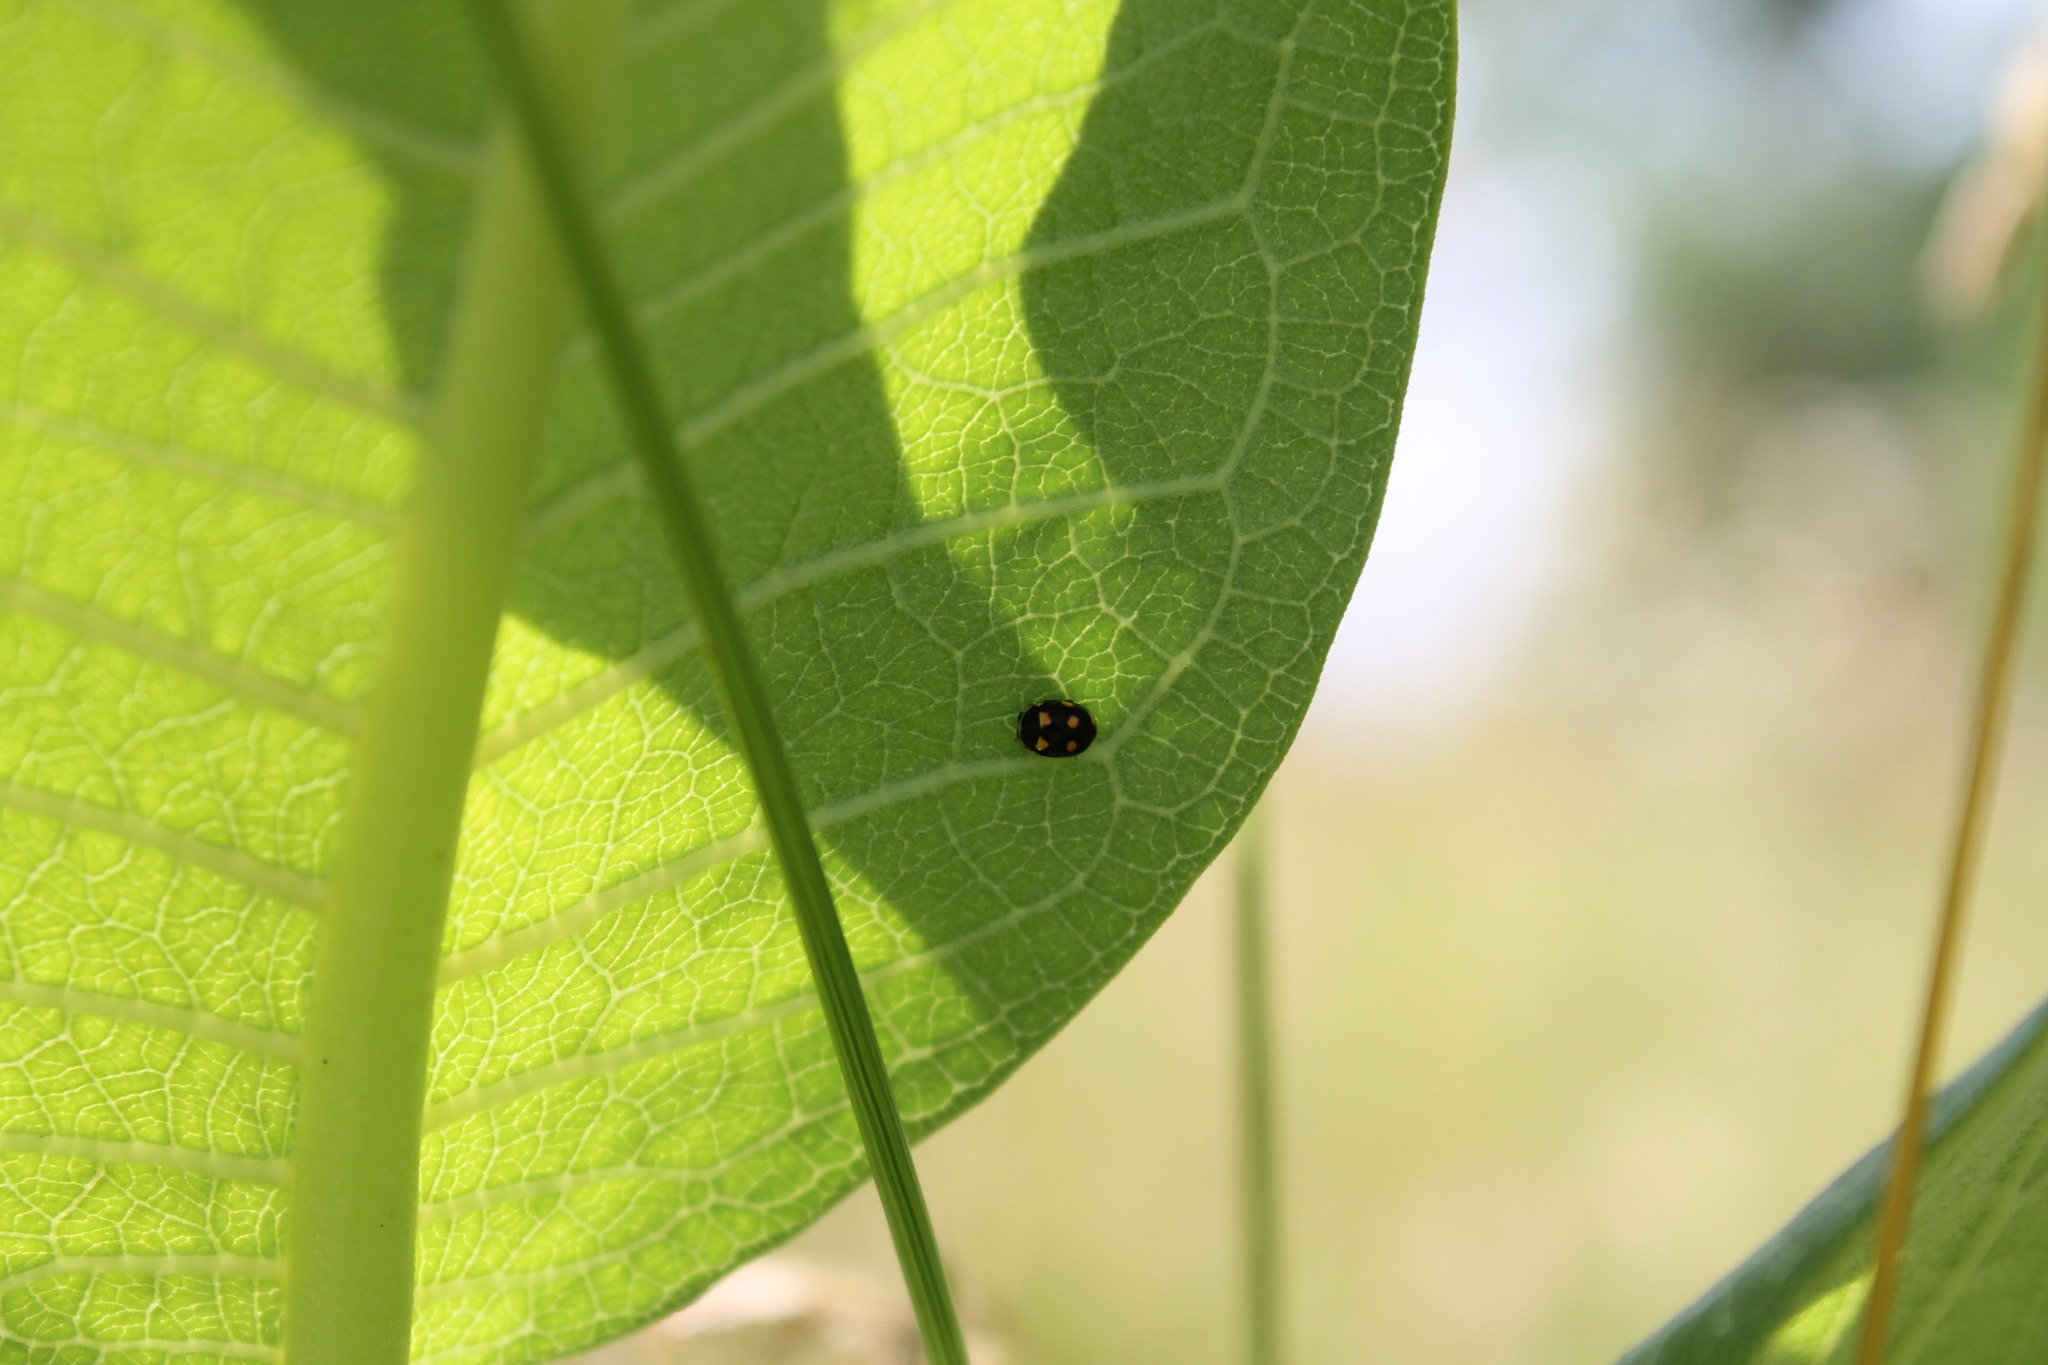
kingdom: Animalia
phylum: Arthropoda
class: Insecta
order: Coleoptera
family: Coccinellidae
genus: Brachiacantha
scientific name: Brachiacantha decempustulata
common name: Ten-spotted spurleg lady beetle
